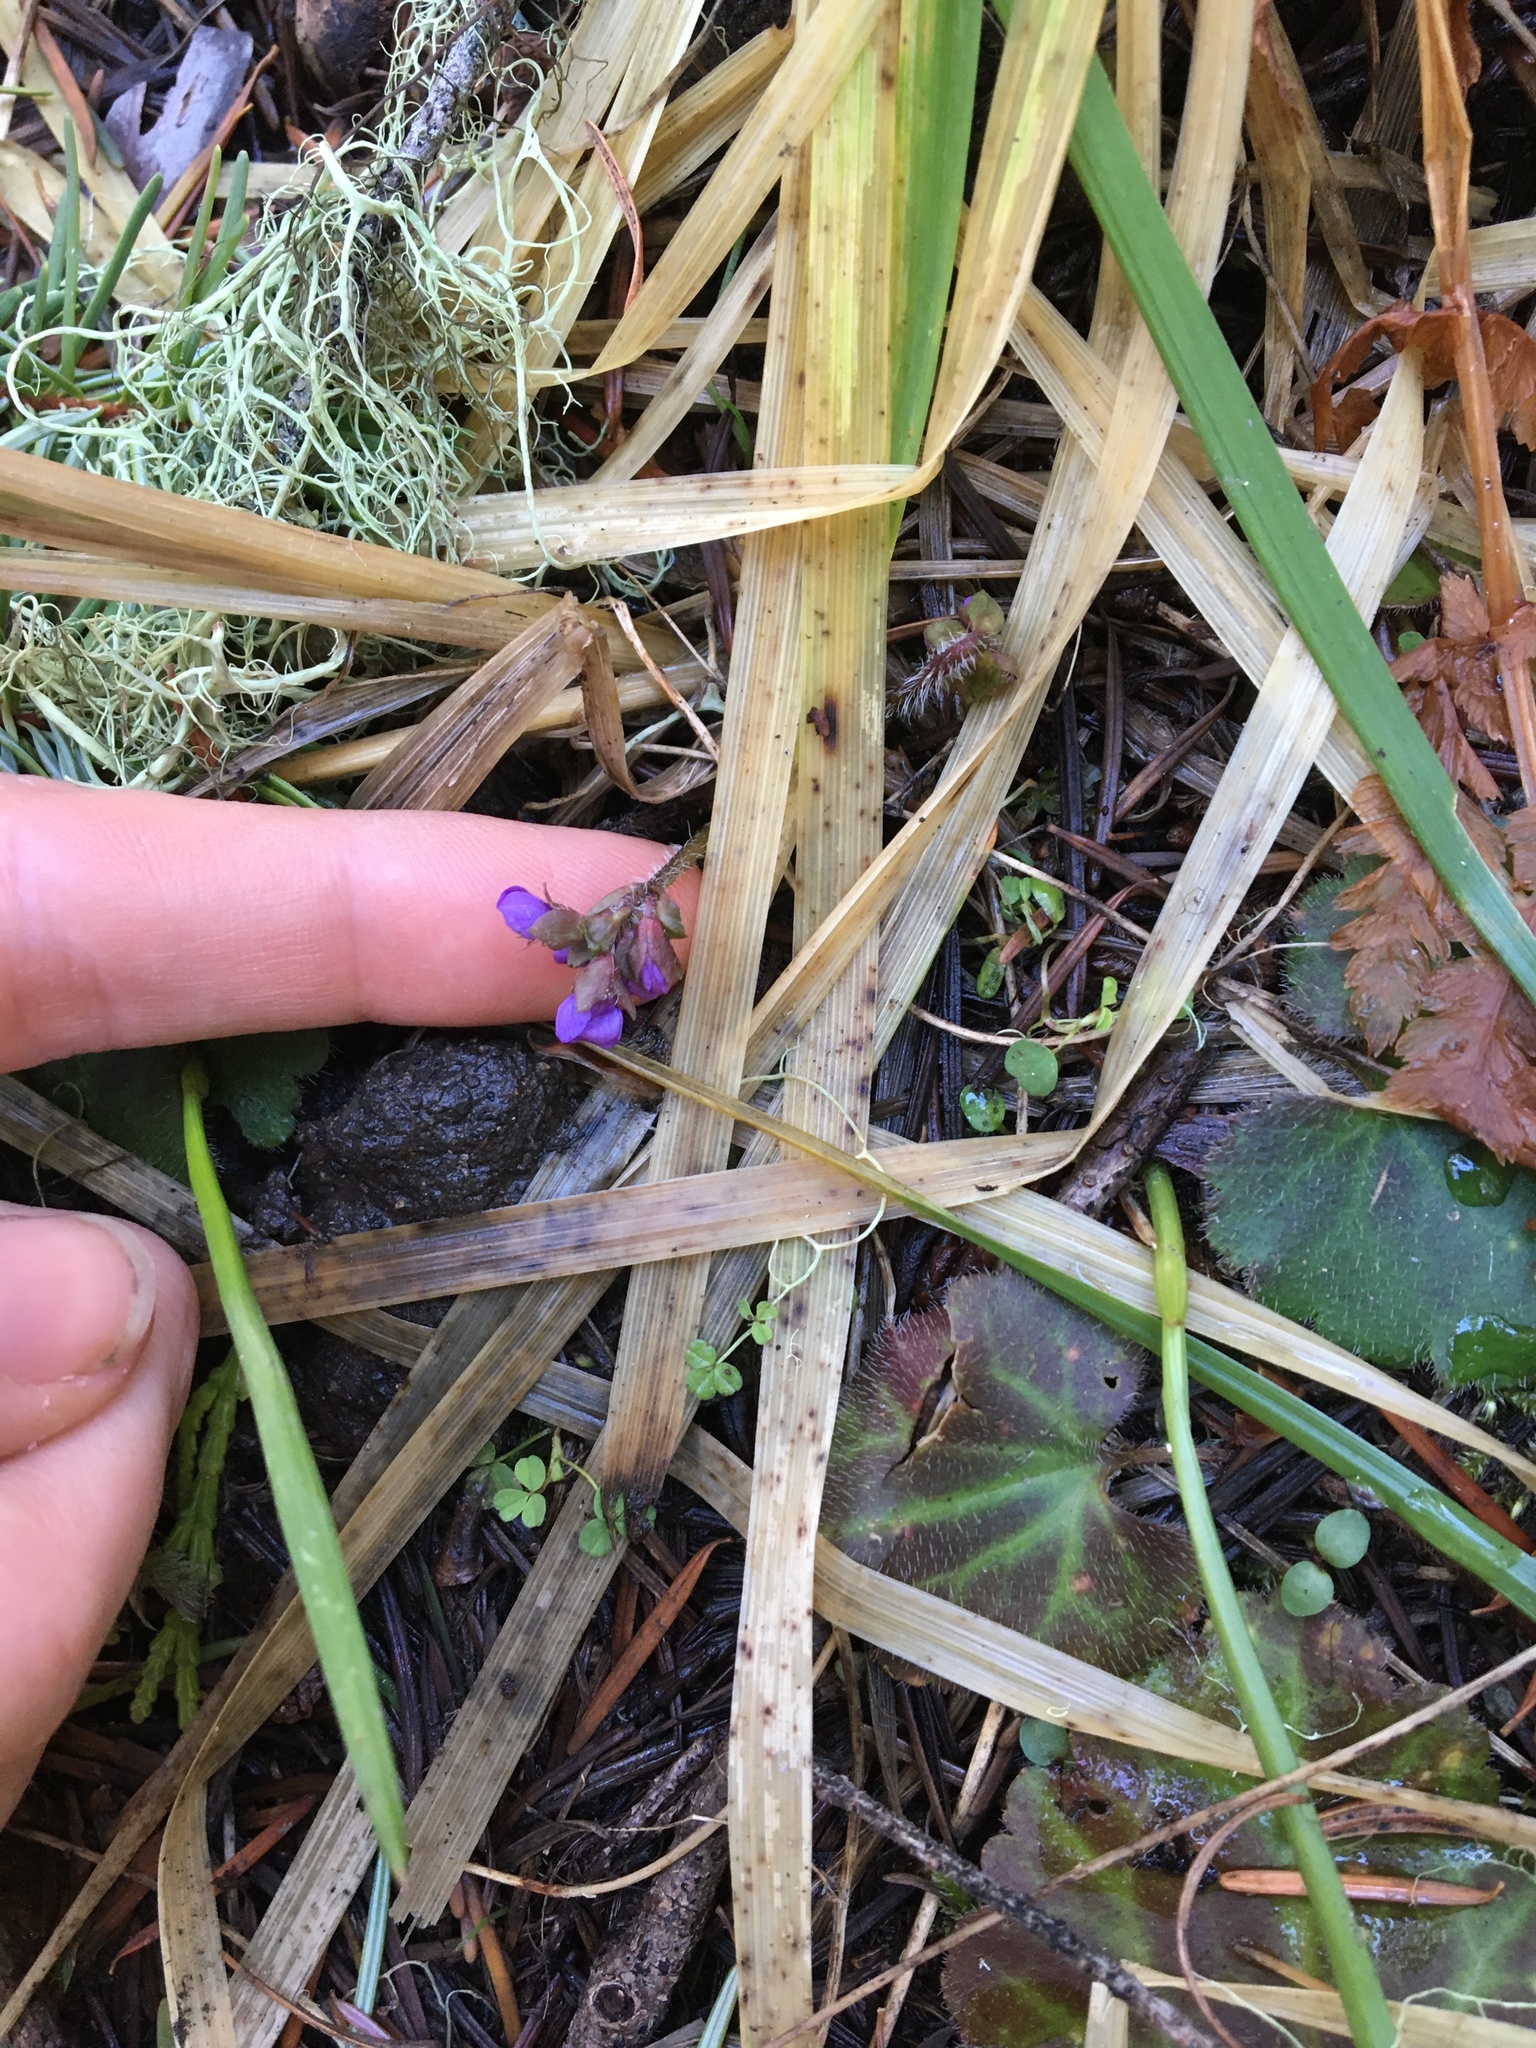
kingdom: Plantae
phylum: Tracheophyta
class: Magnoliopsida
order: Lamiales
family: Plantaginaceae
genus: Synthyris
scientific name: Synthyris reniformis
